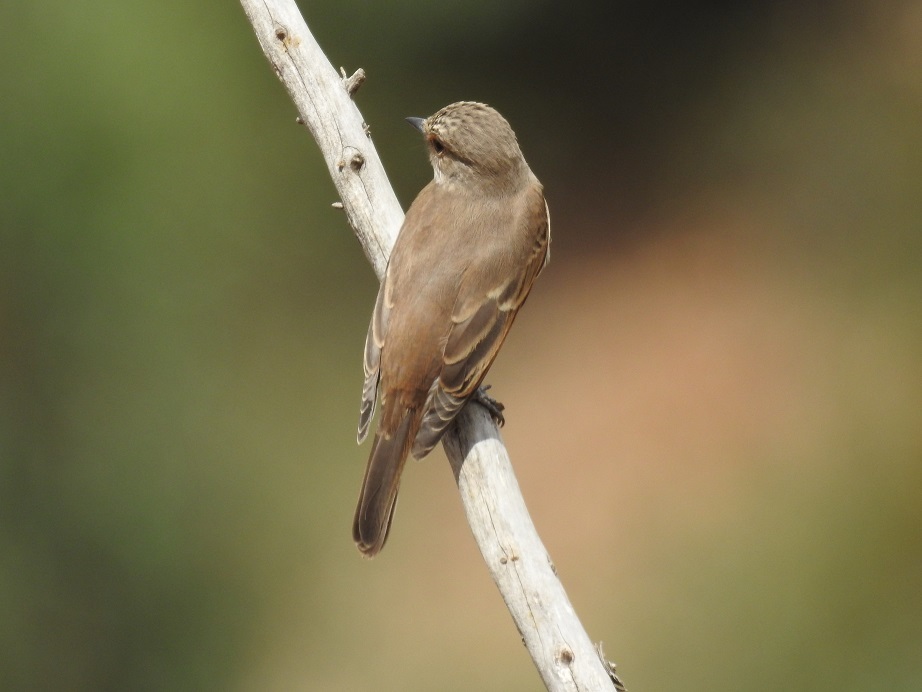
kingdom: Animalia
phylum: Chordata
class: Aves
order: Passeriformes
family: Muscicapidae
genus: Muscicapa
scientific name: Muscicapa striata
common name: Spotted flycatcher
